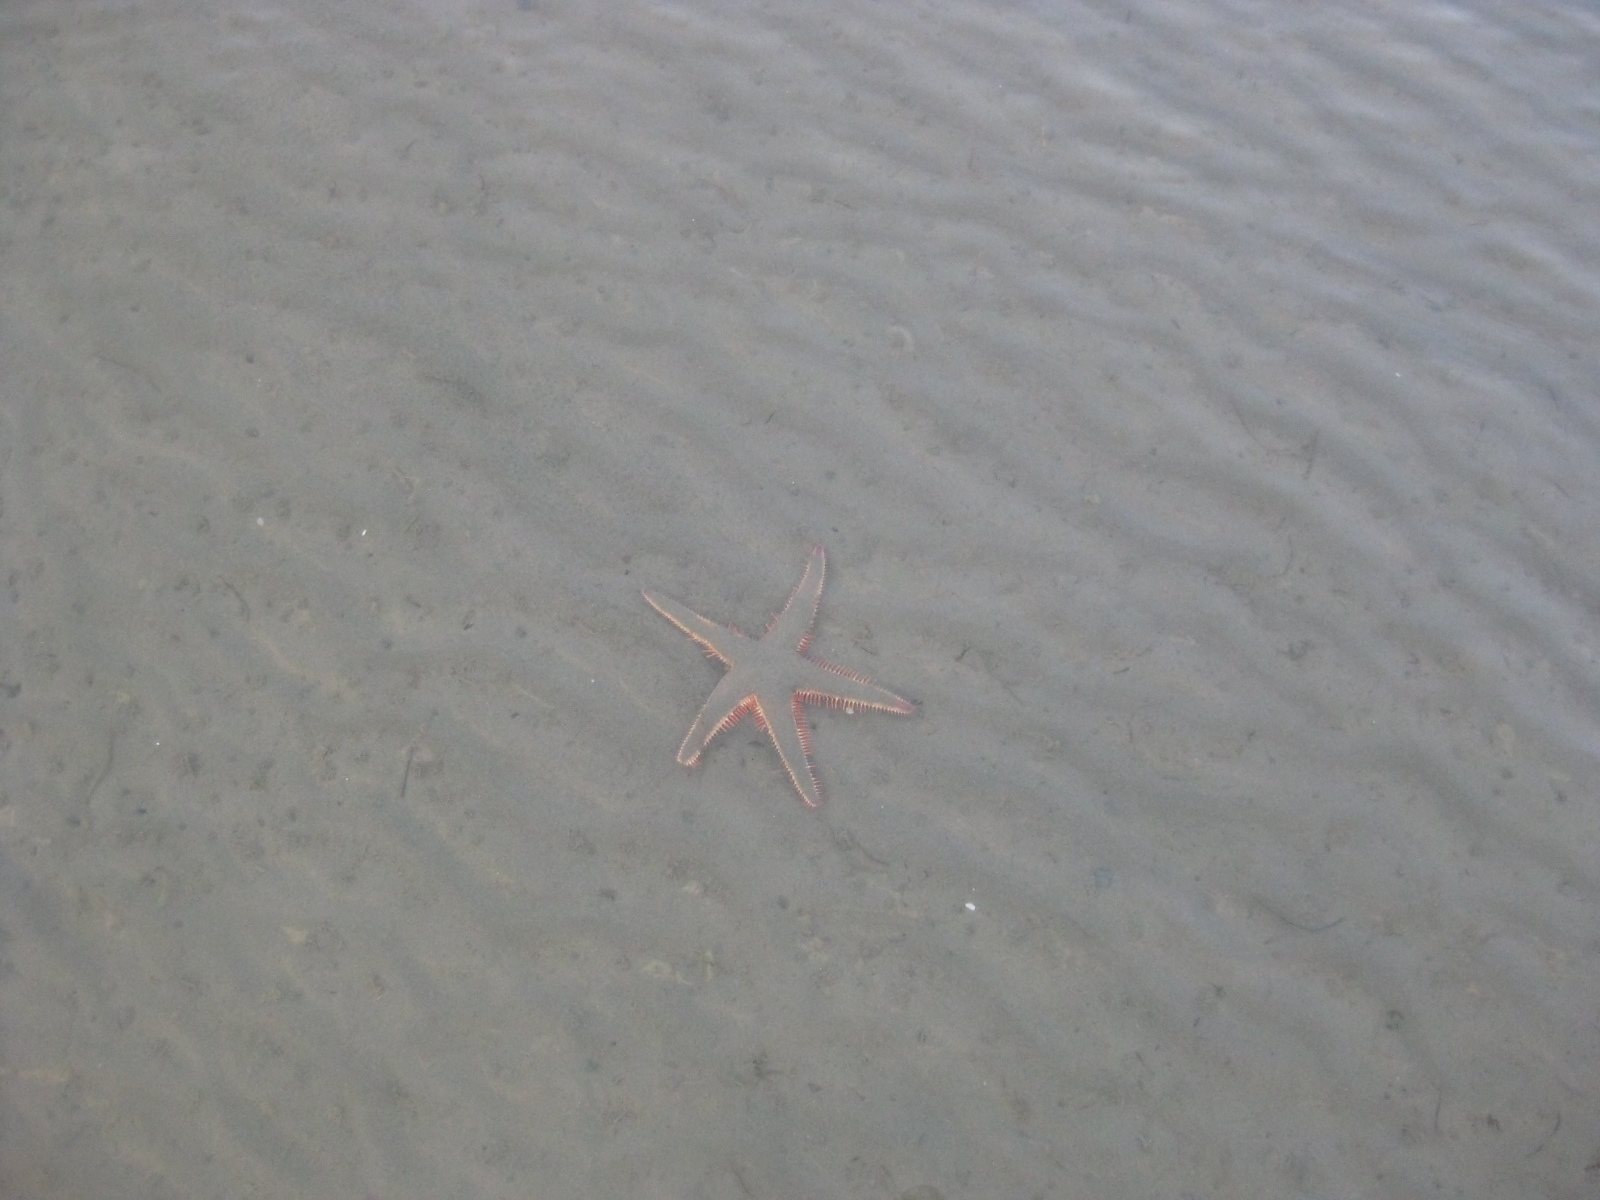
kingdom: Animalia
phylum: Echinodermata
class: Asteroidea
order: Paxillosida
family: Astropectinidae
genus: Astropecten
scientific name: Astropecten polyacanthus
